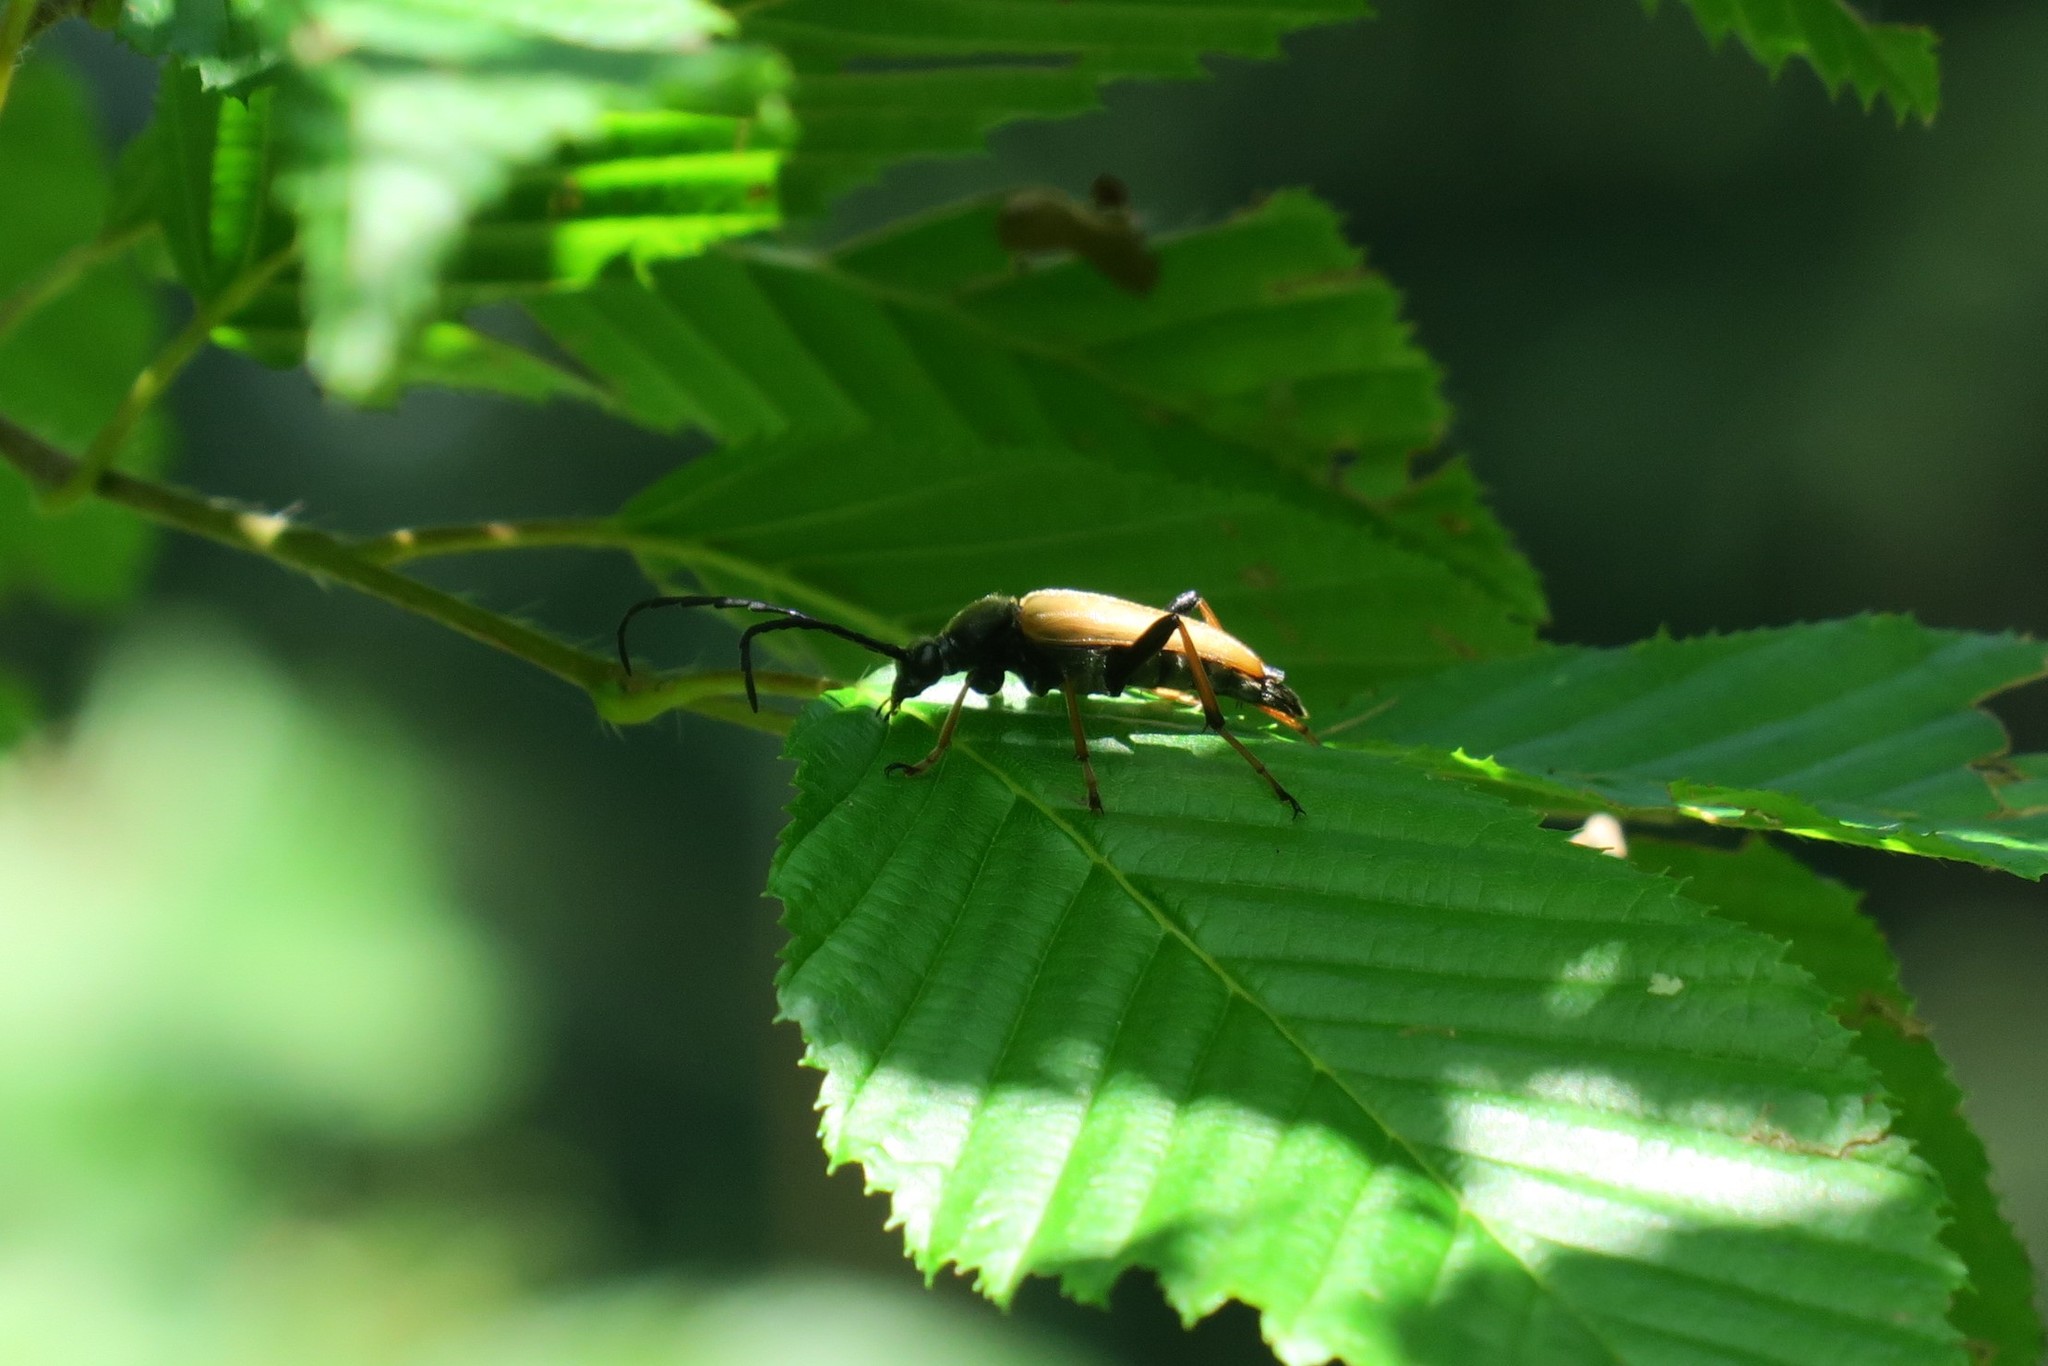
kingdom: Animalia
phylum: Arthropoda
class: Insecta
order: Coleoptera
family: Cerambycidae
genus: Stictoleptura
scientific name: Stictoleptura rubra
